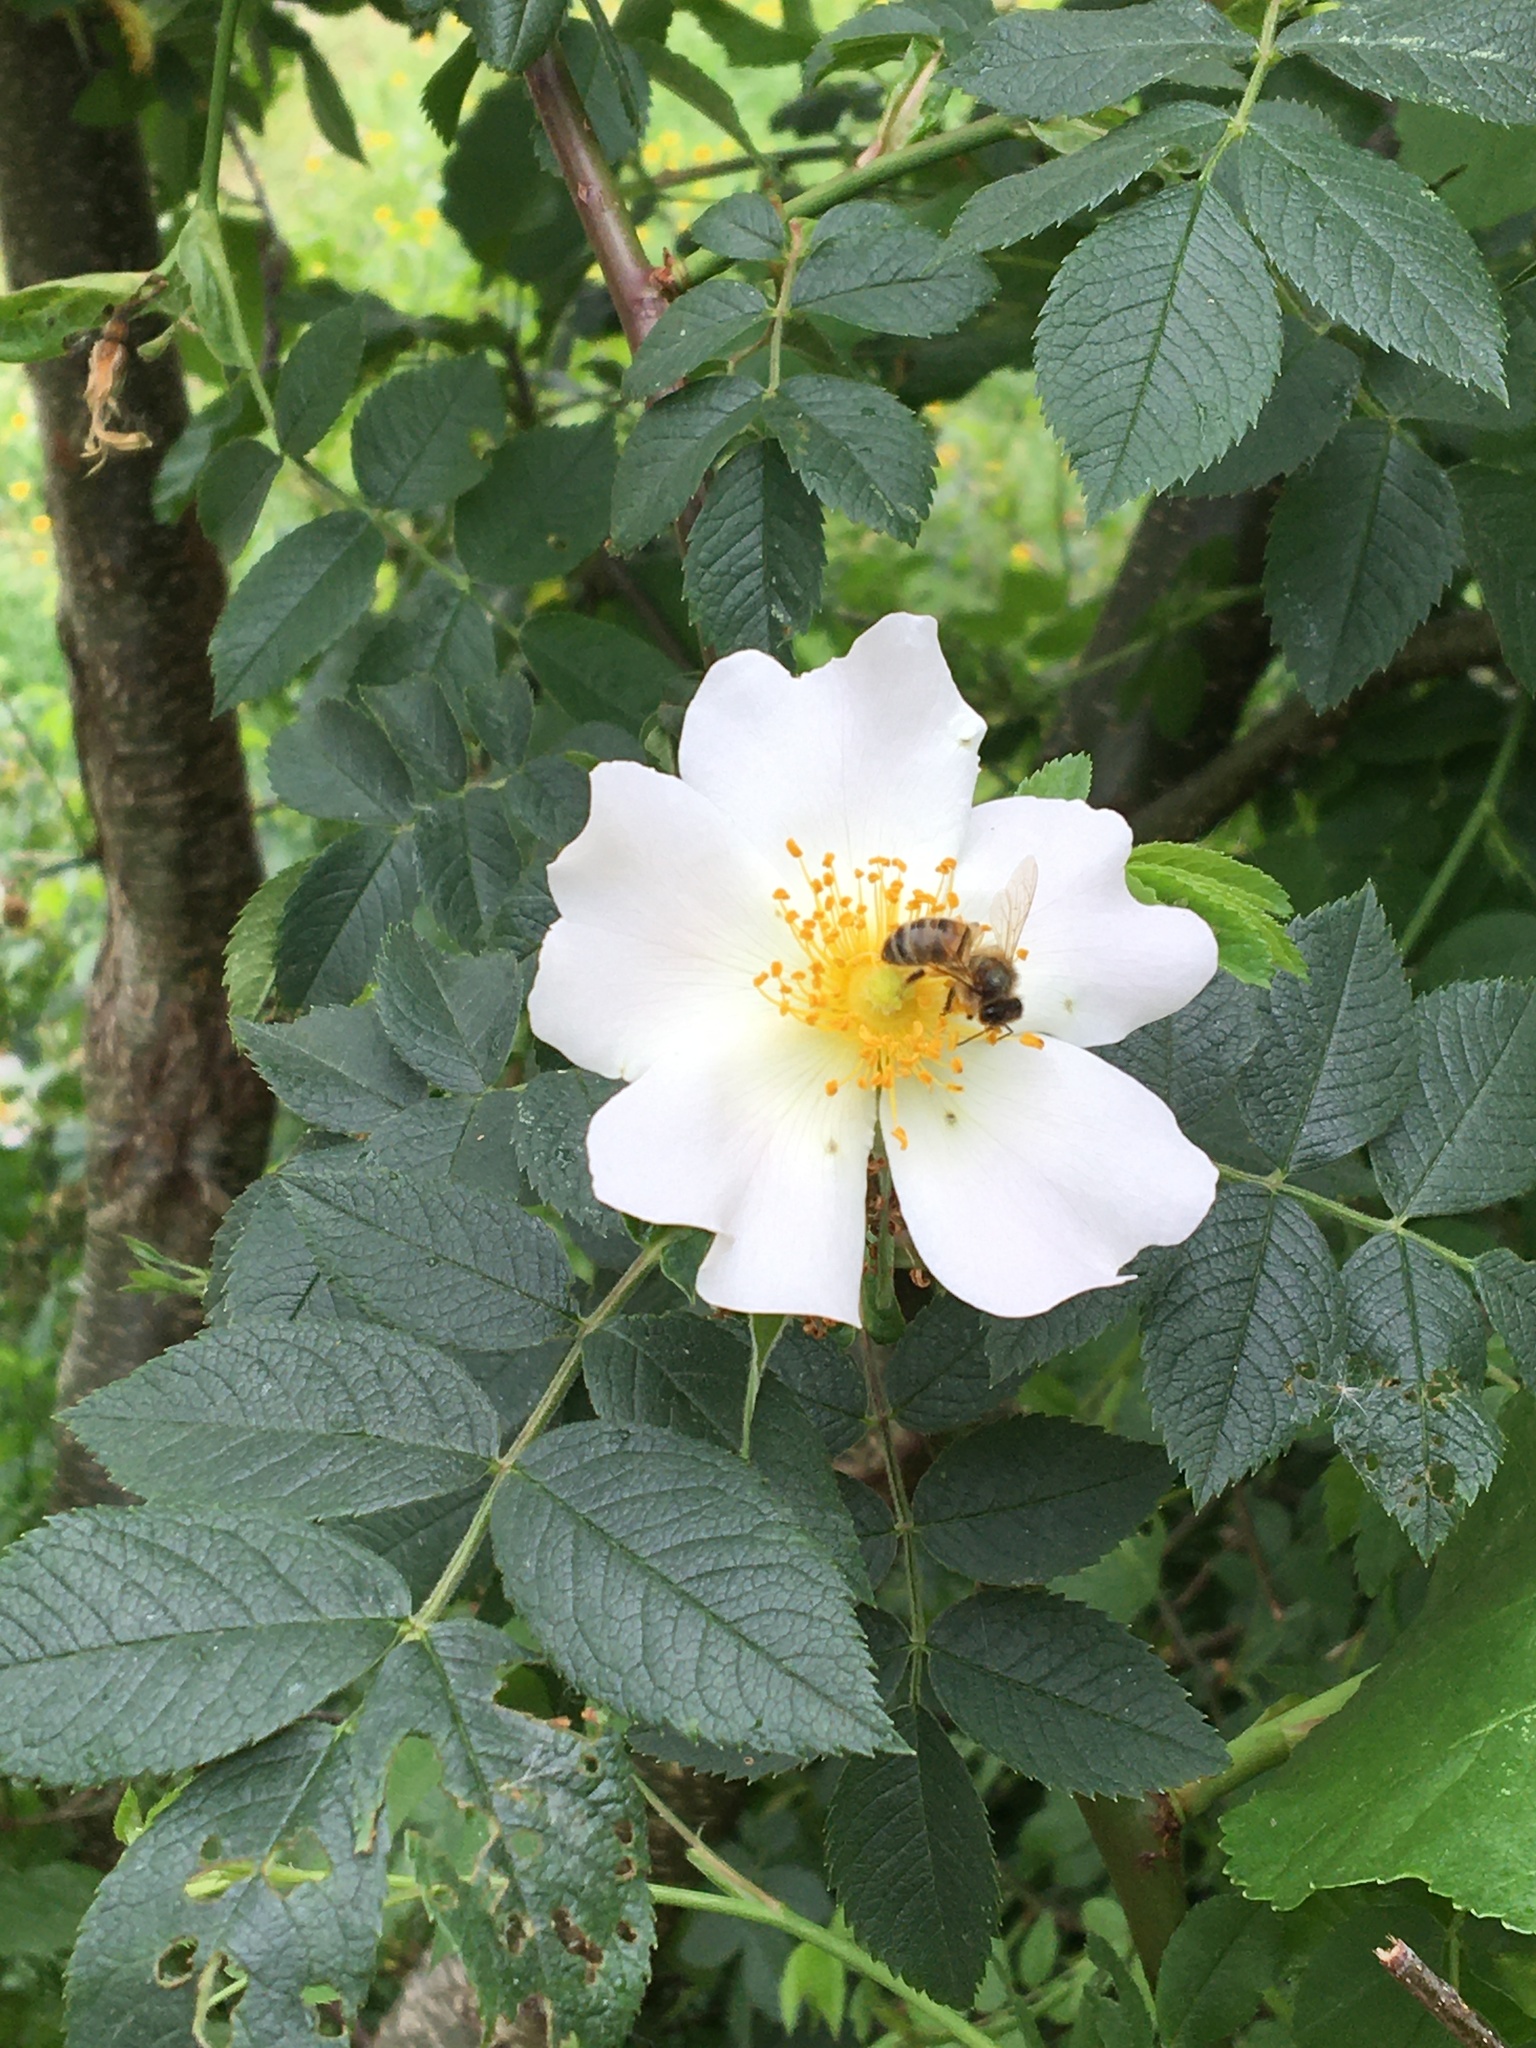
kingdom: Animalia
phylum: Arthropoda
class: Insecta
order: Hymenoptera
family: Apidae
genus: Apis
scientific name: Apis mellifera
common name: Honey bee
